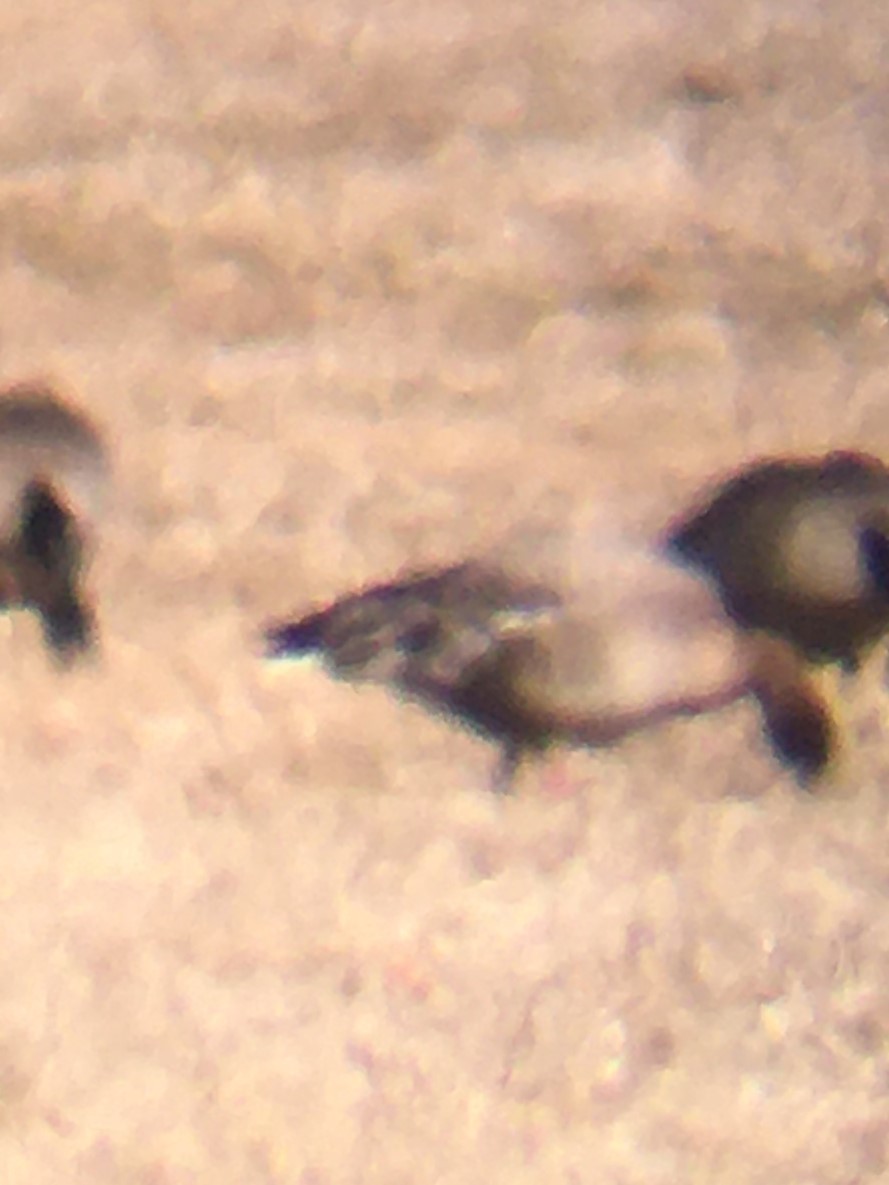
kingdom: Animalia
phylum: Chordata
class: Aves
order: Anseriformes
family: Anatidae
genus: Anser
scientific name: Anser brachyrhynchus
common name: Pink-footed goose
